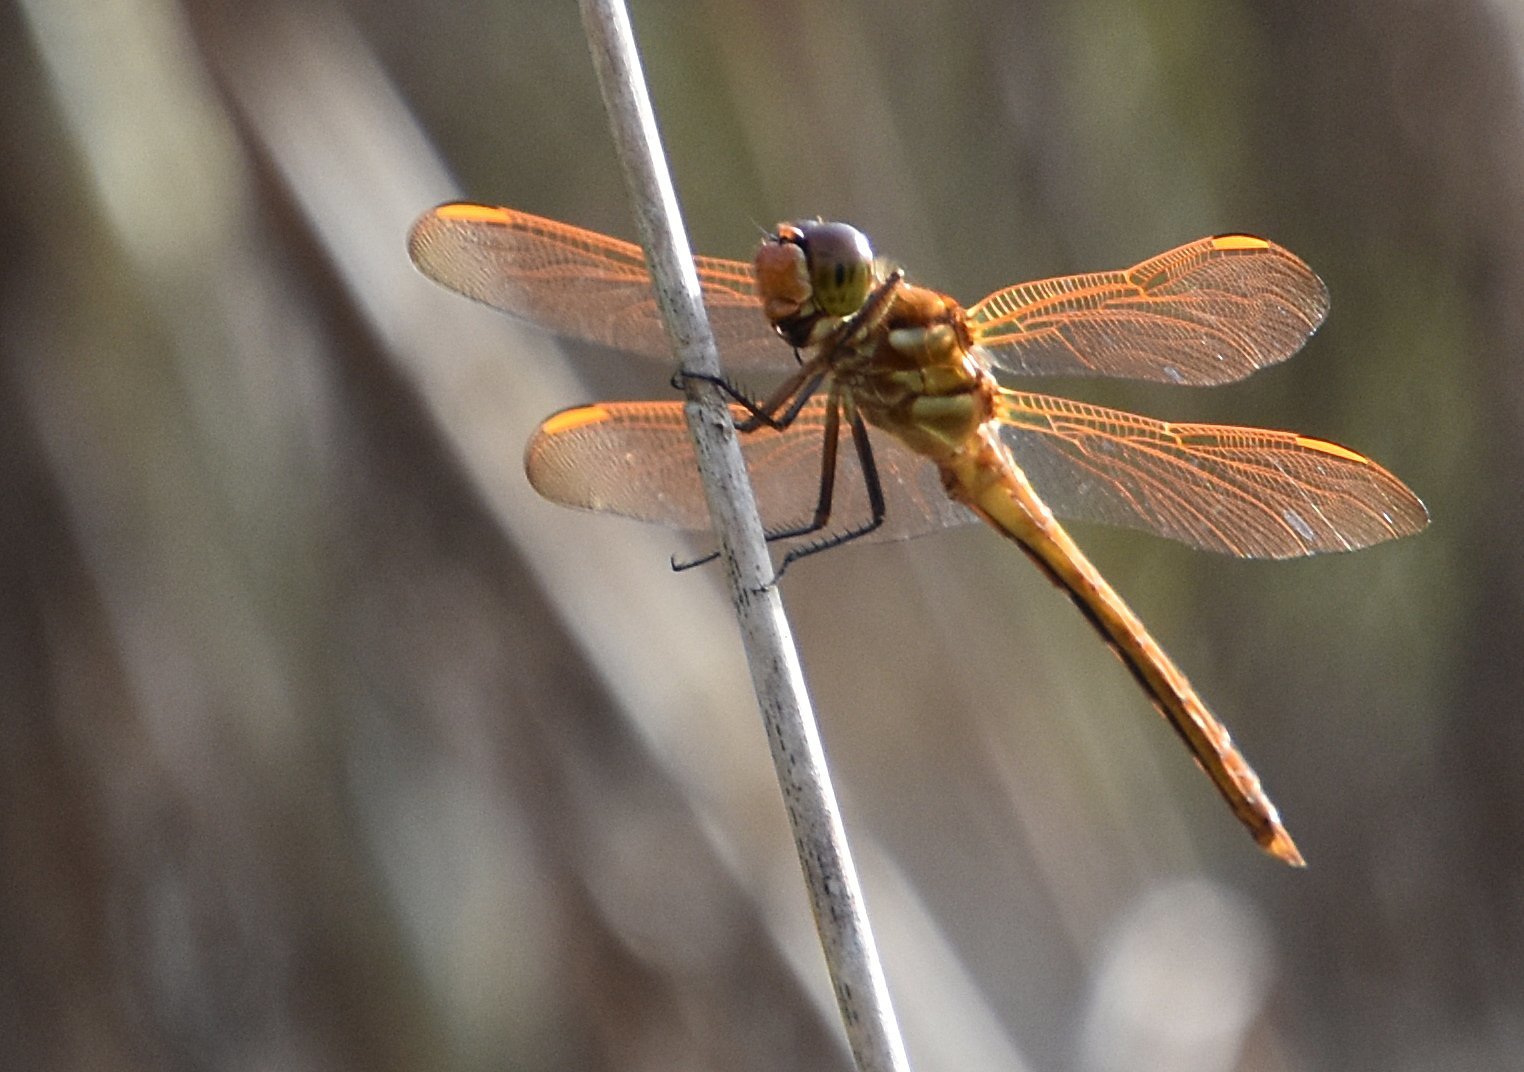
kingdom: Animalia
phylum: Arthropoda
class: Insecta
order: Odonata
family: Libellulidae
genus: Libellula
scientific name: Libellula auripennis
